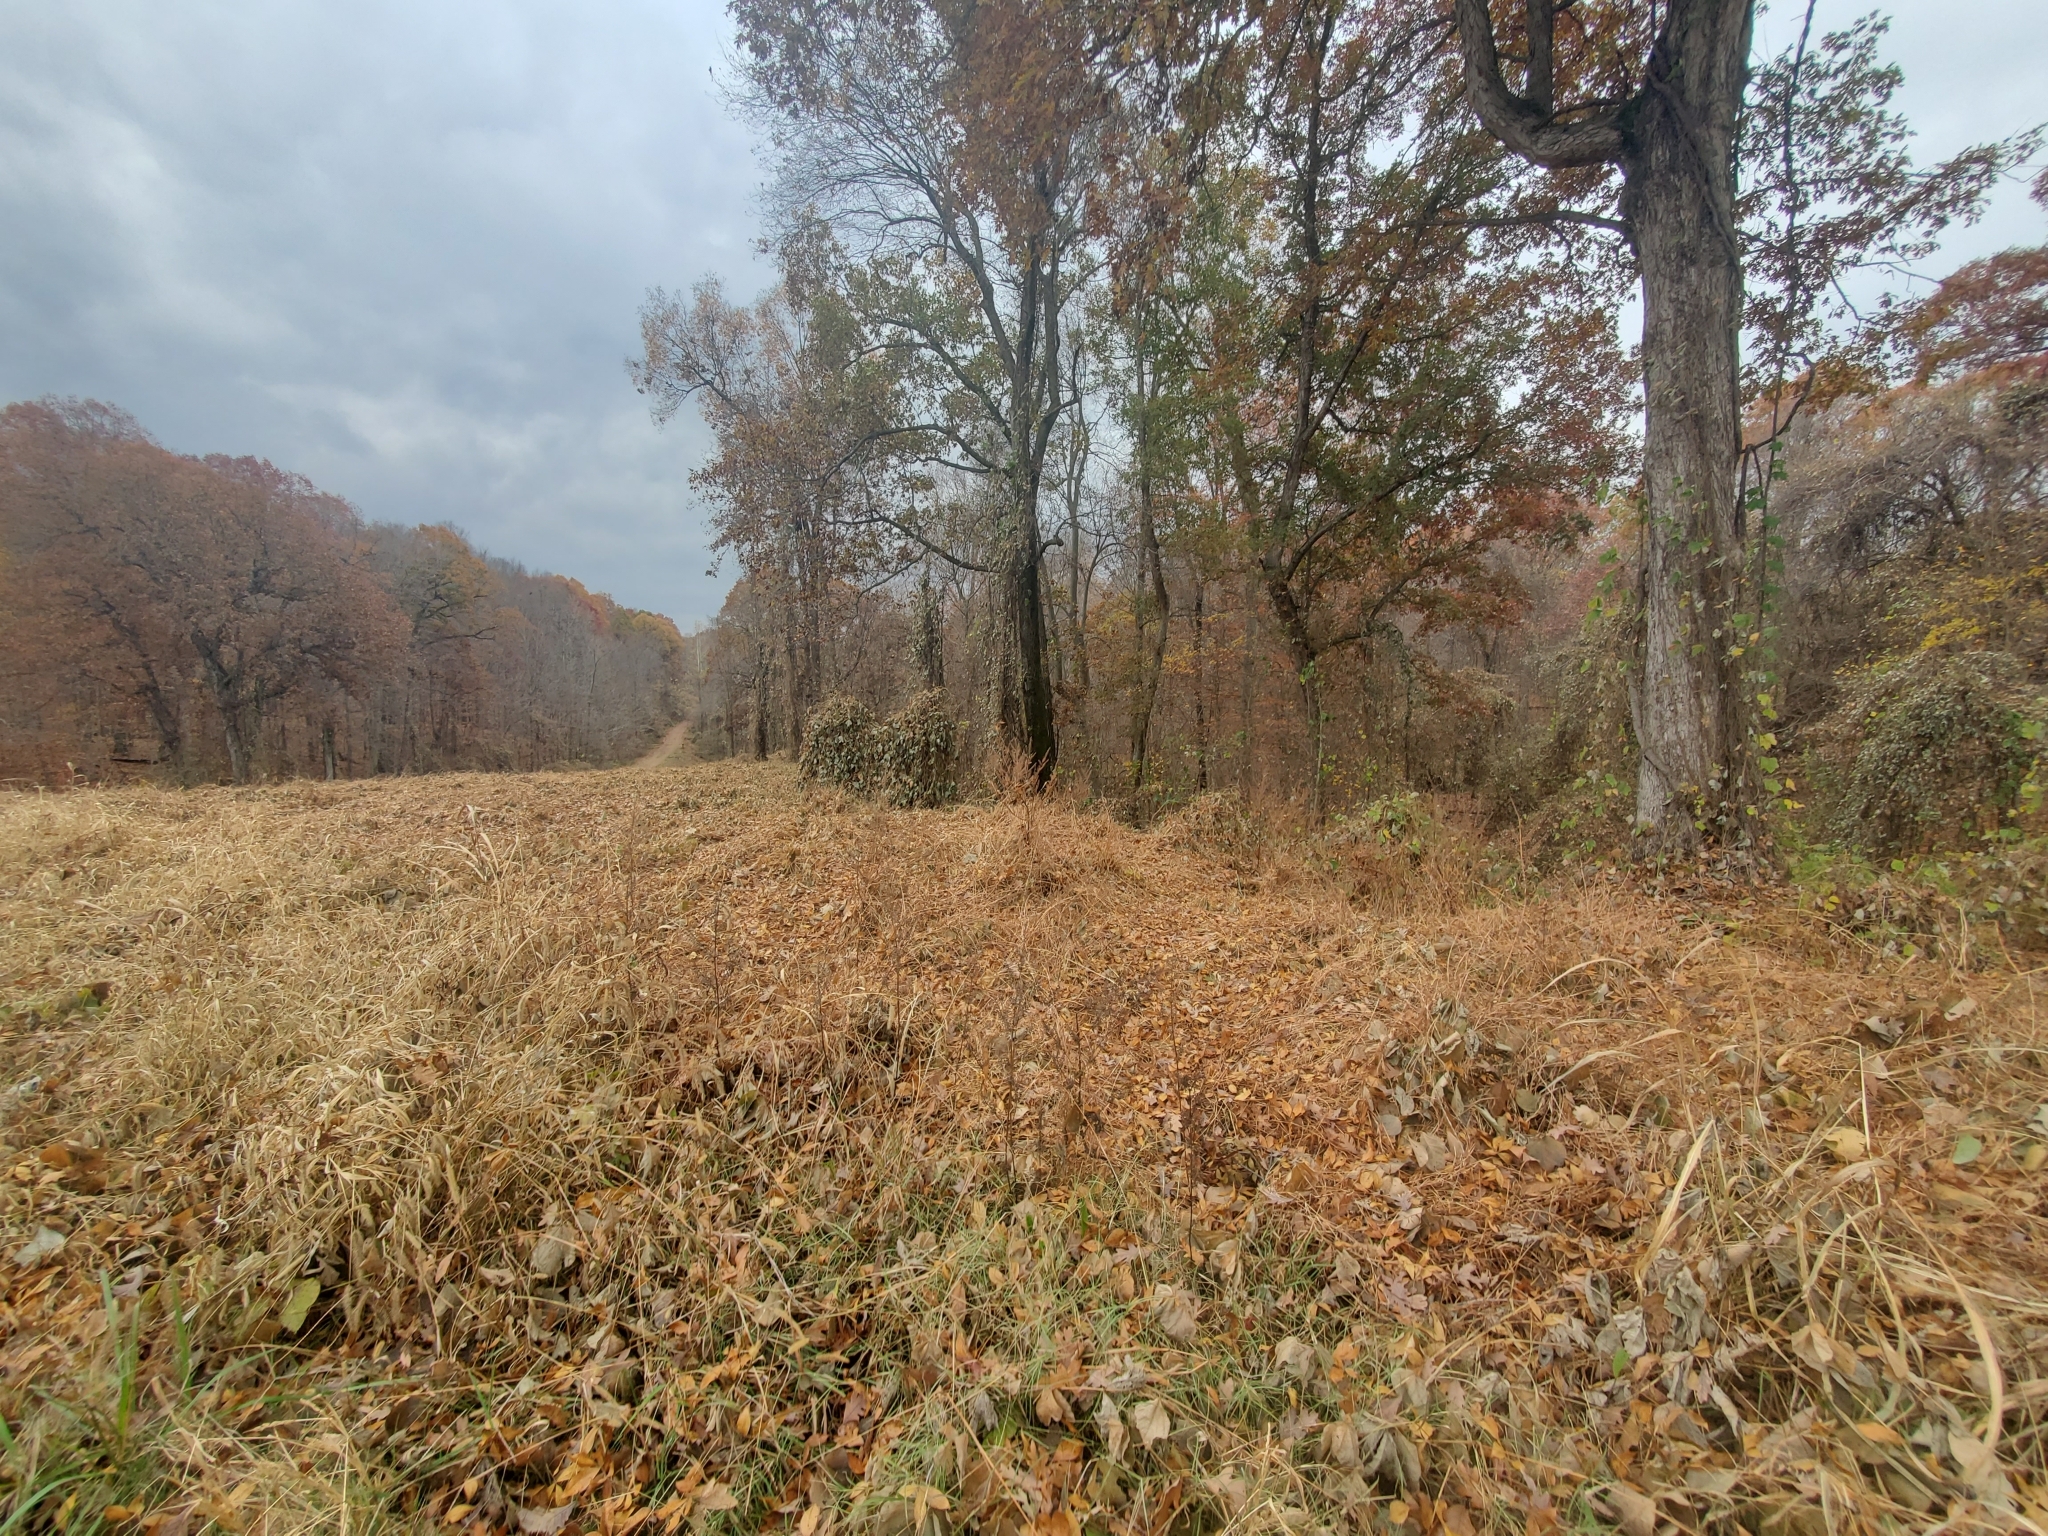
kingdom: Plantae
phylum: Tracheophyta
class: Magnoliopsida
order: Fabales
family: Fabaceae
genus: Pueraria
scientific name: Pueraria montana
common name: Kudzu
